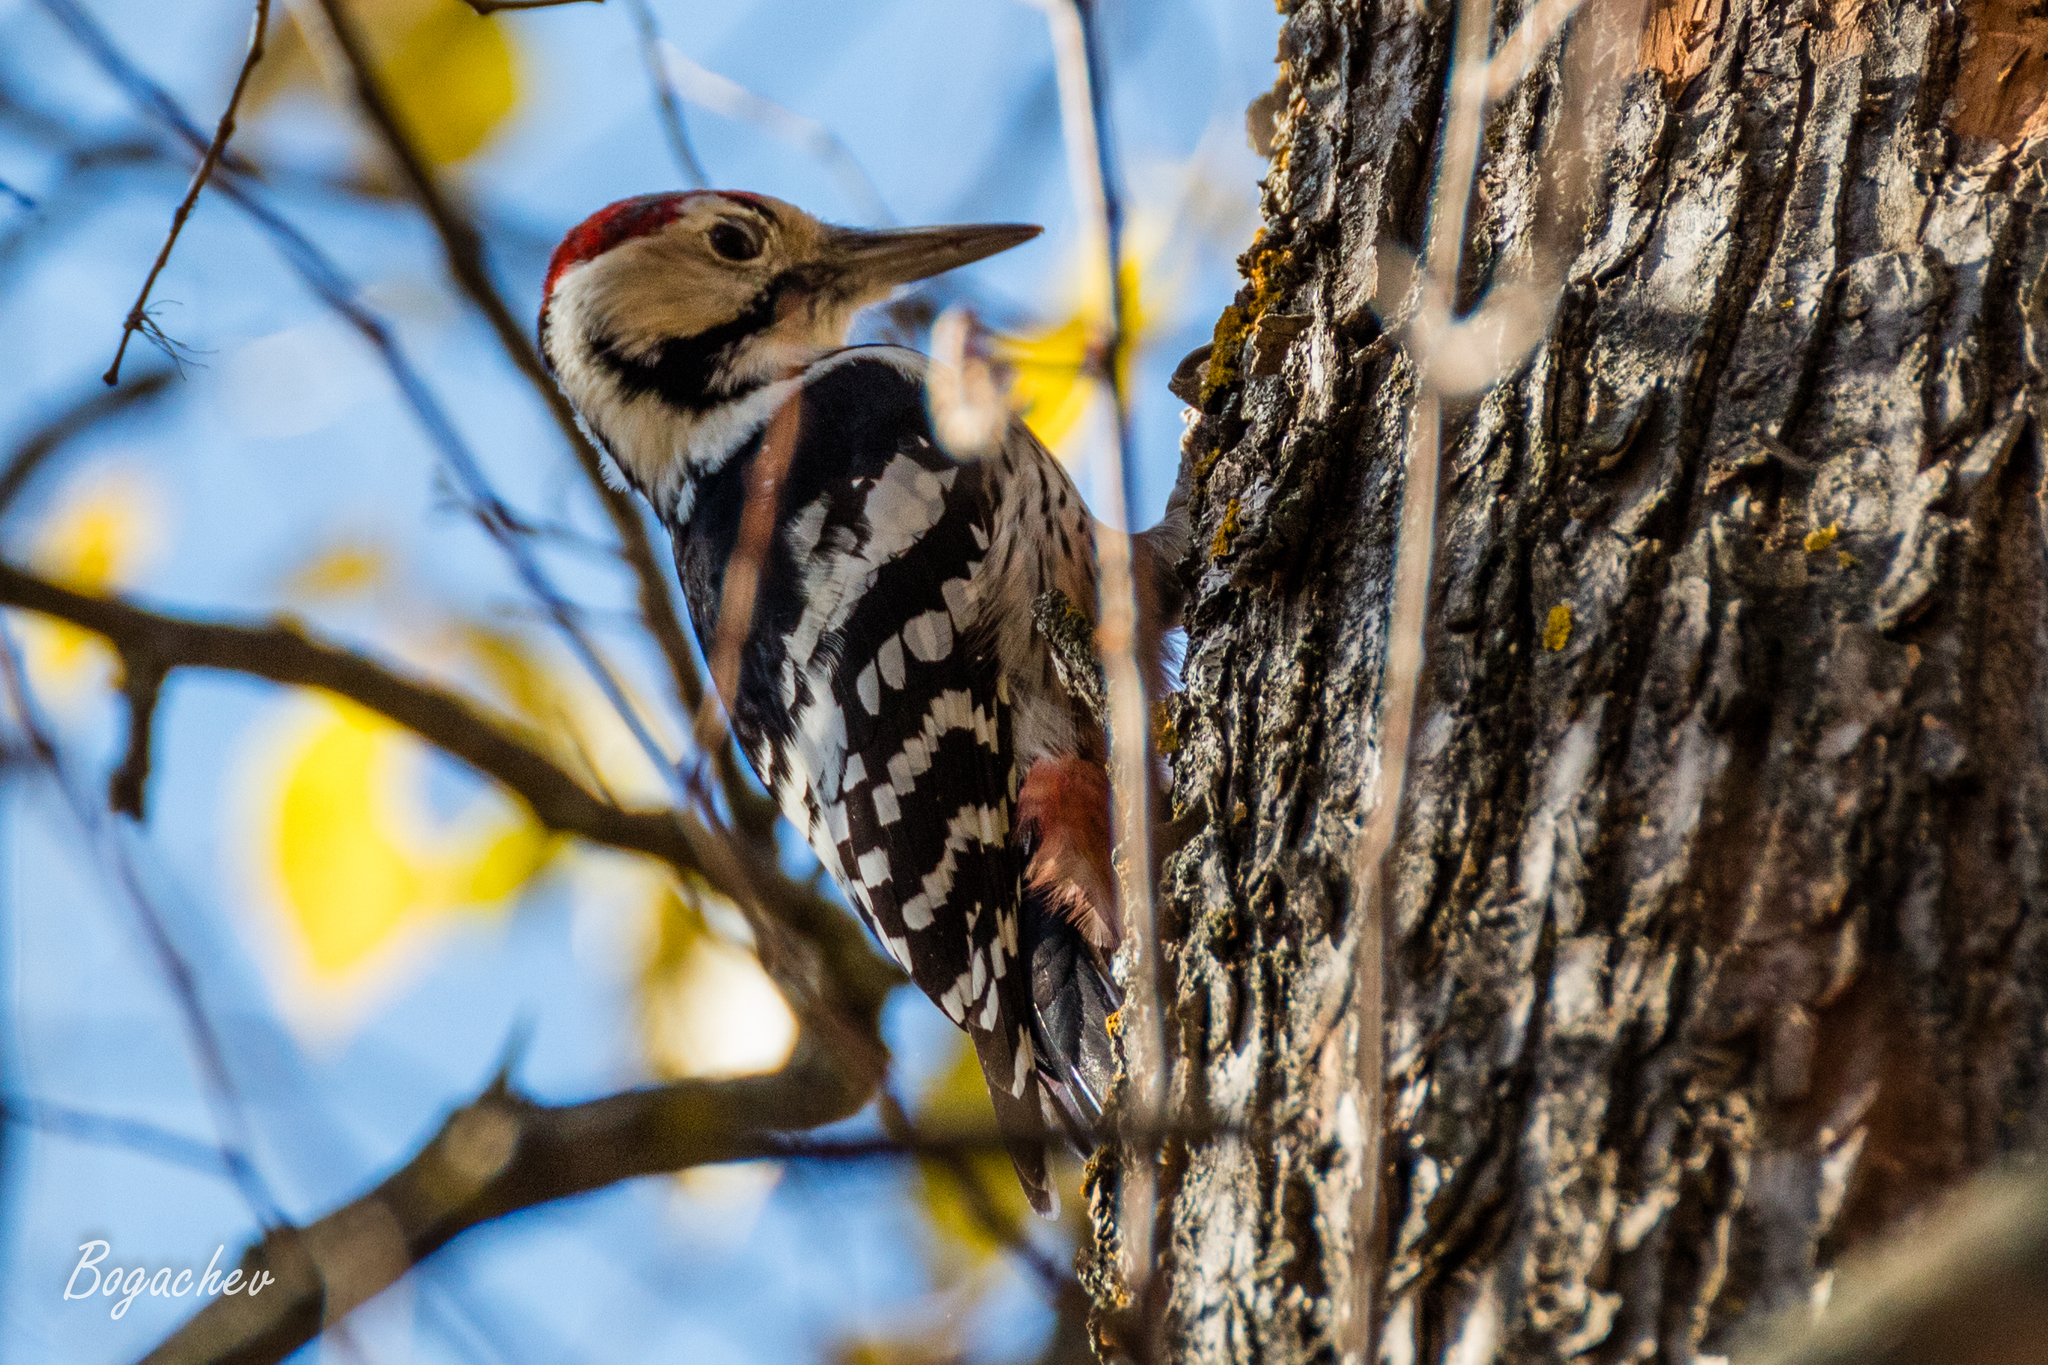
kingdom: Animalia
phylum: Chordata
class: Aves
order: Piciformes
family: Picidae
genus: Dendrocopos
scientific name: Dendrocopos leucotos
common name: White-backed woodpecker
